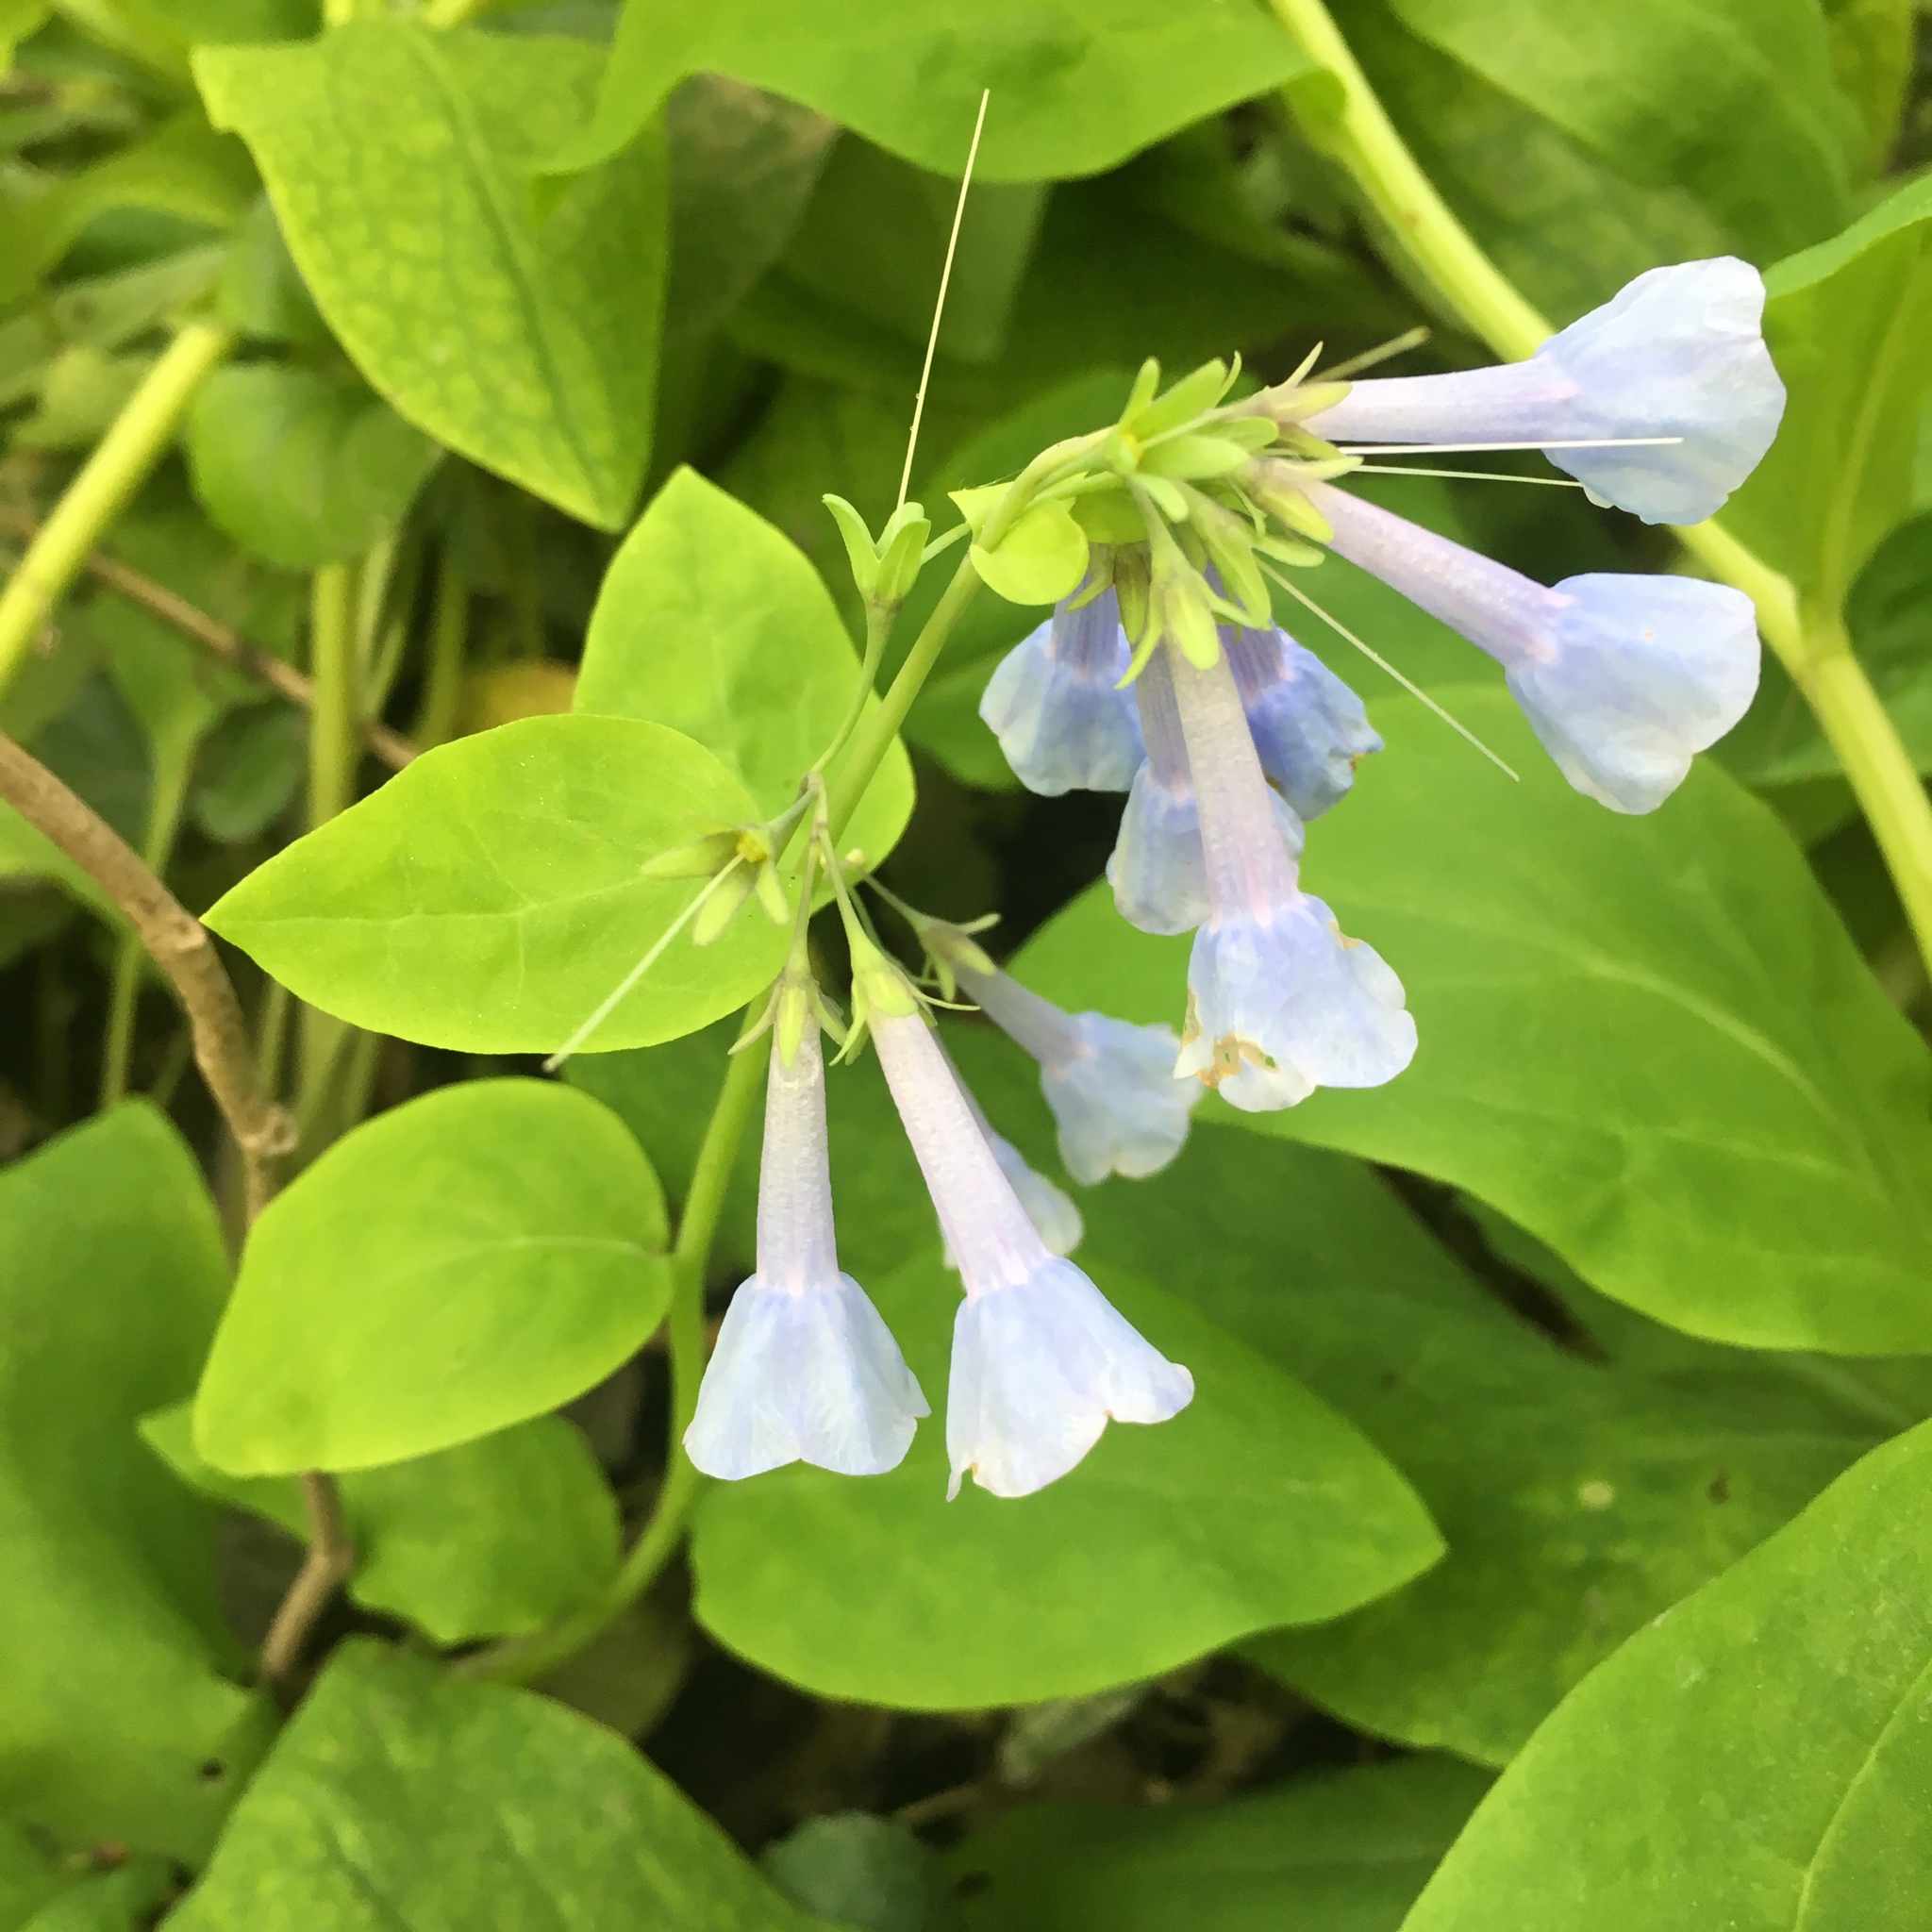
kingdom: Plantae
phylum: Tracheophyta
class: Magnoliopsida
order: Boraginales
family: Boraginaceae
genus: Mertensia
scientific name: Mertensia virginica
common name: Virginia bluebells
